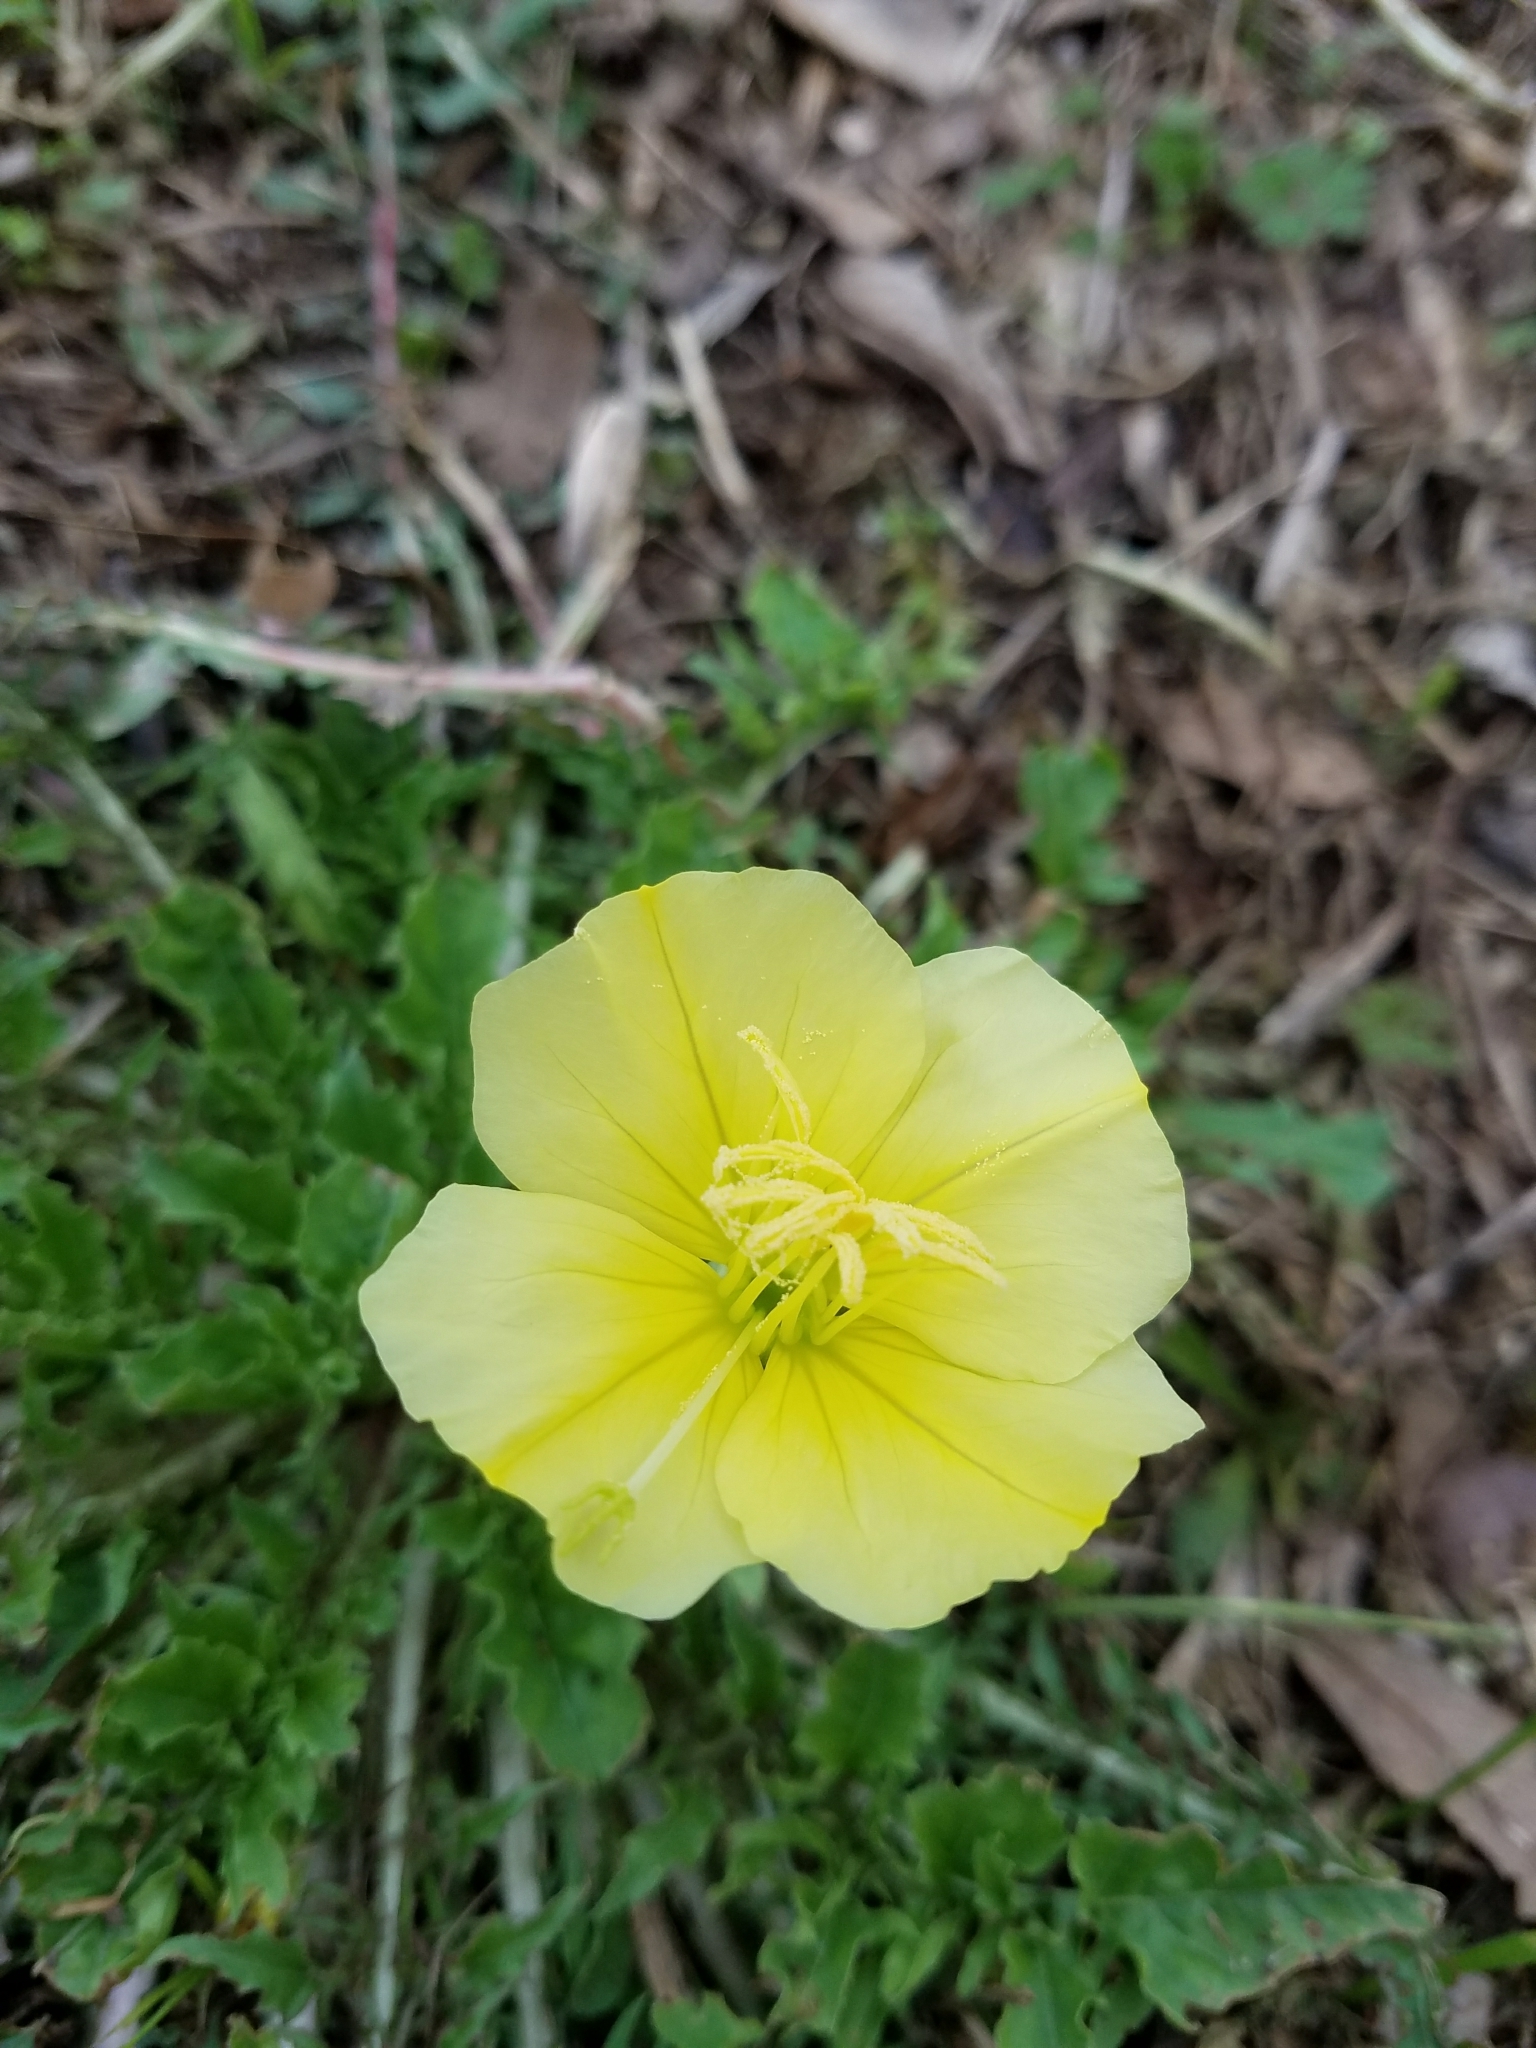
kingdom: Plantae
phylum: Tracheophyta
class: Magnoliopsida
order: Myrtales
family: Onagraceae
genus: Oenothera
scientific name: Oenothera triloba
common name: Sessile evening-primrose
